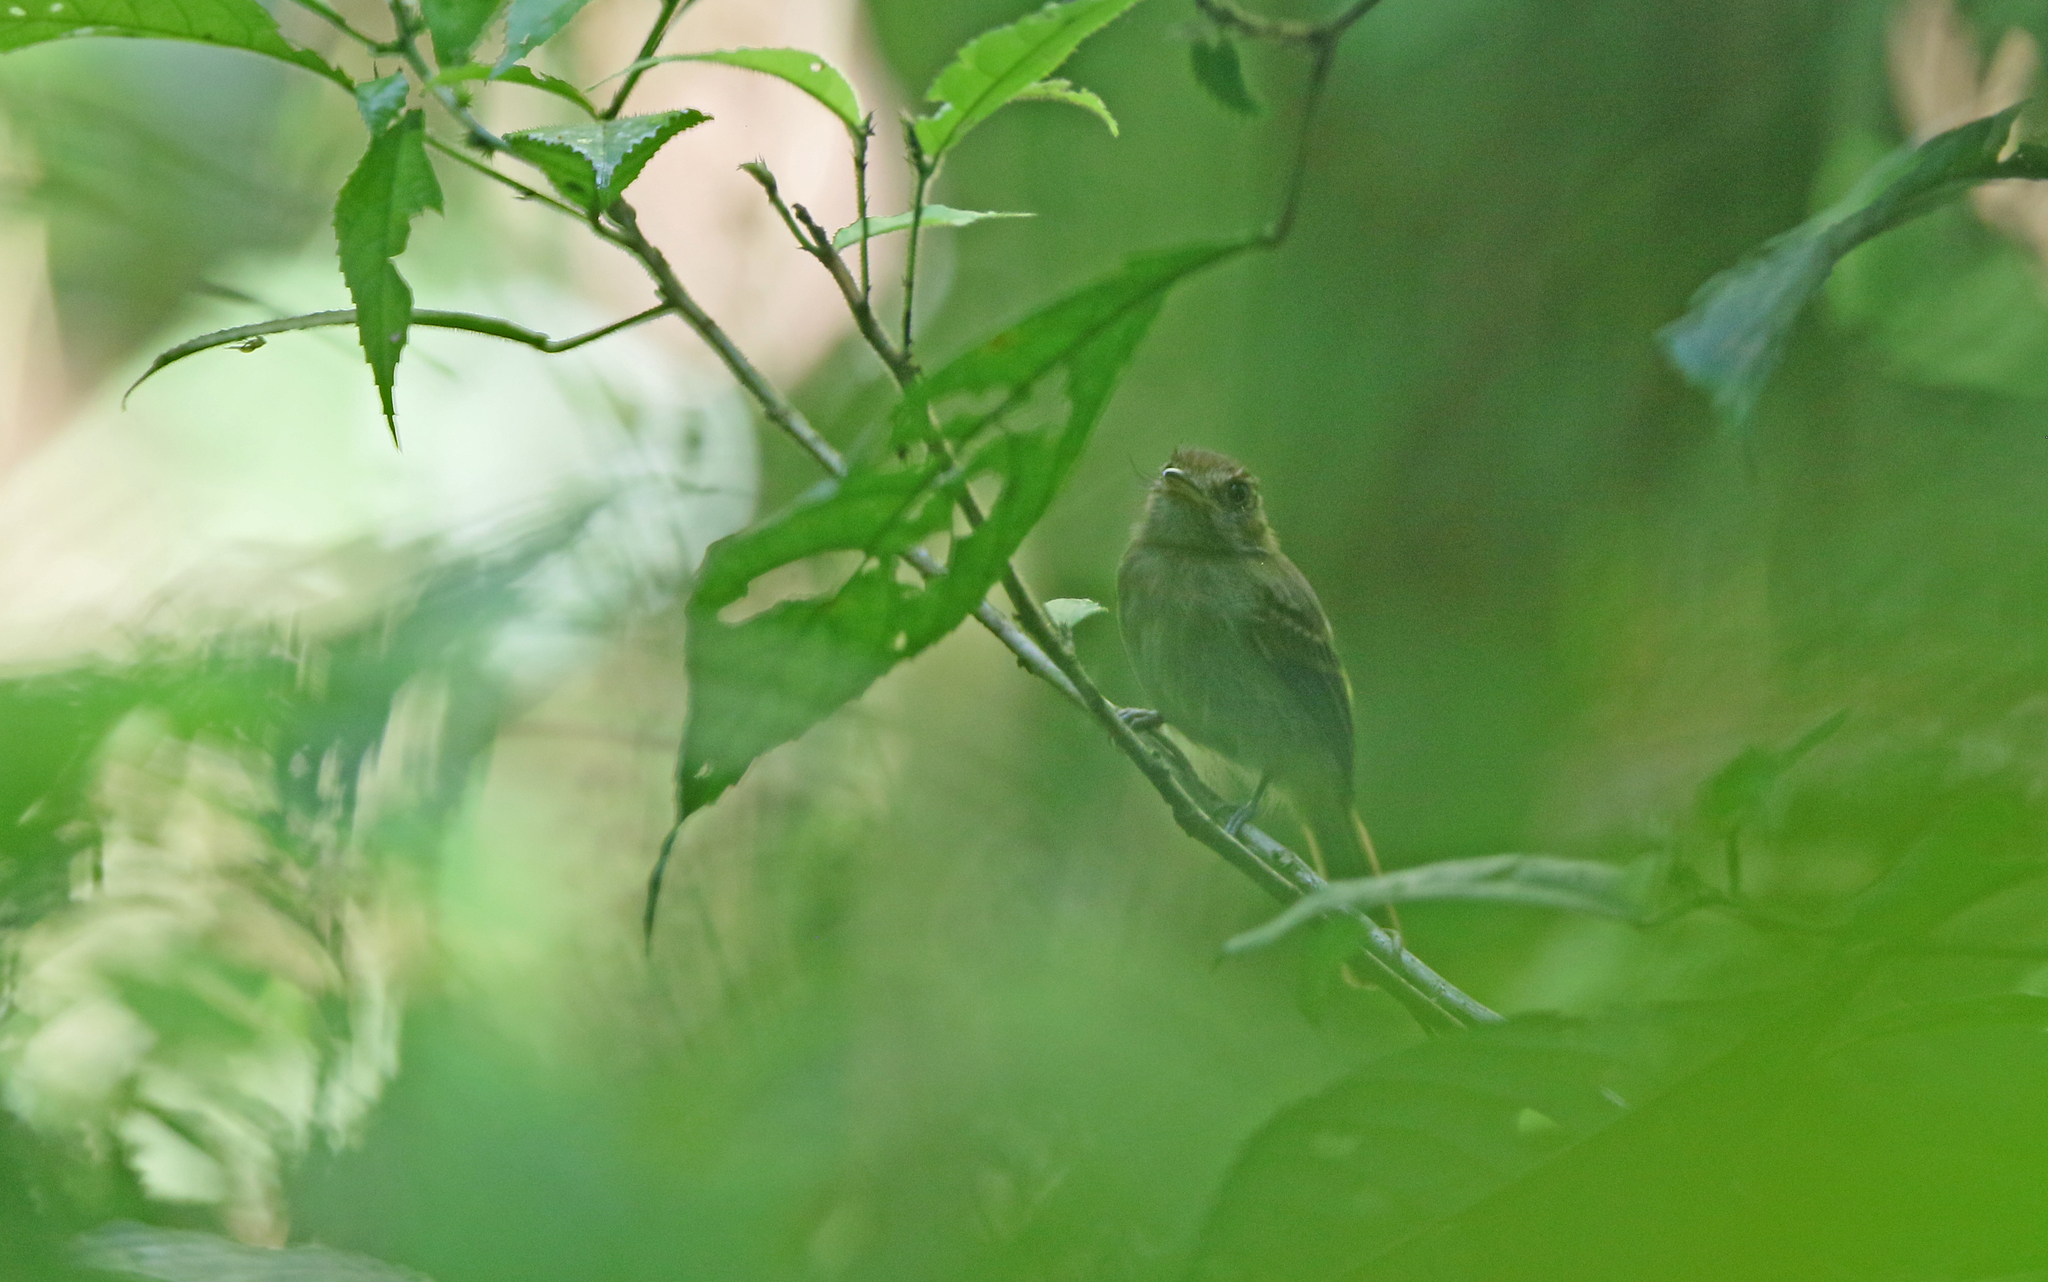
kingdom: Animalia
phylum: Chordata
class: Aves
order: Passeriformes
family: Tyrannidae
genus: Cnipodectes
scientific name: Cnipodectes subbrunneus
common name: Brownish twistwing
